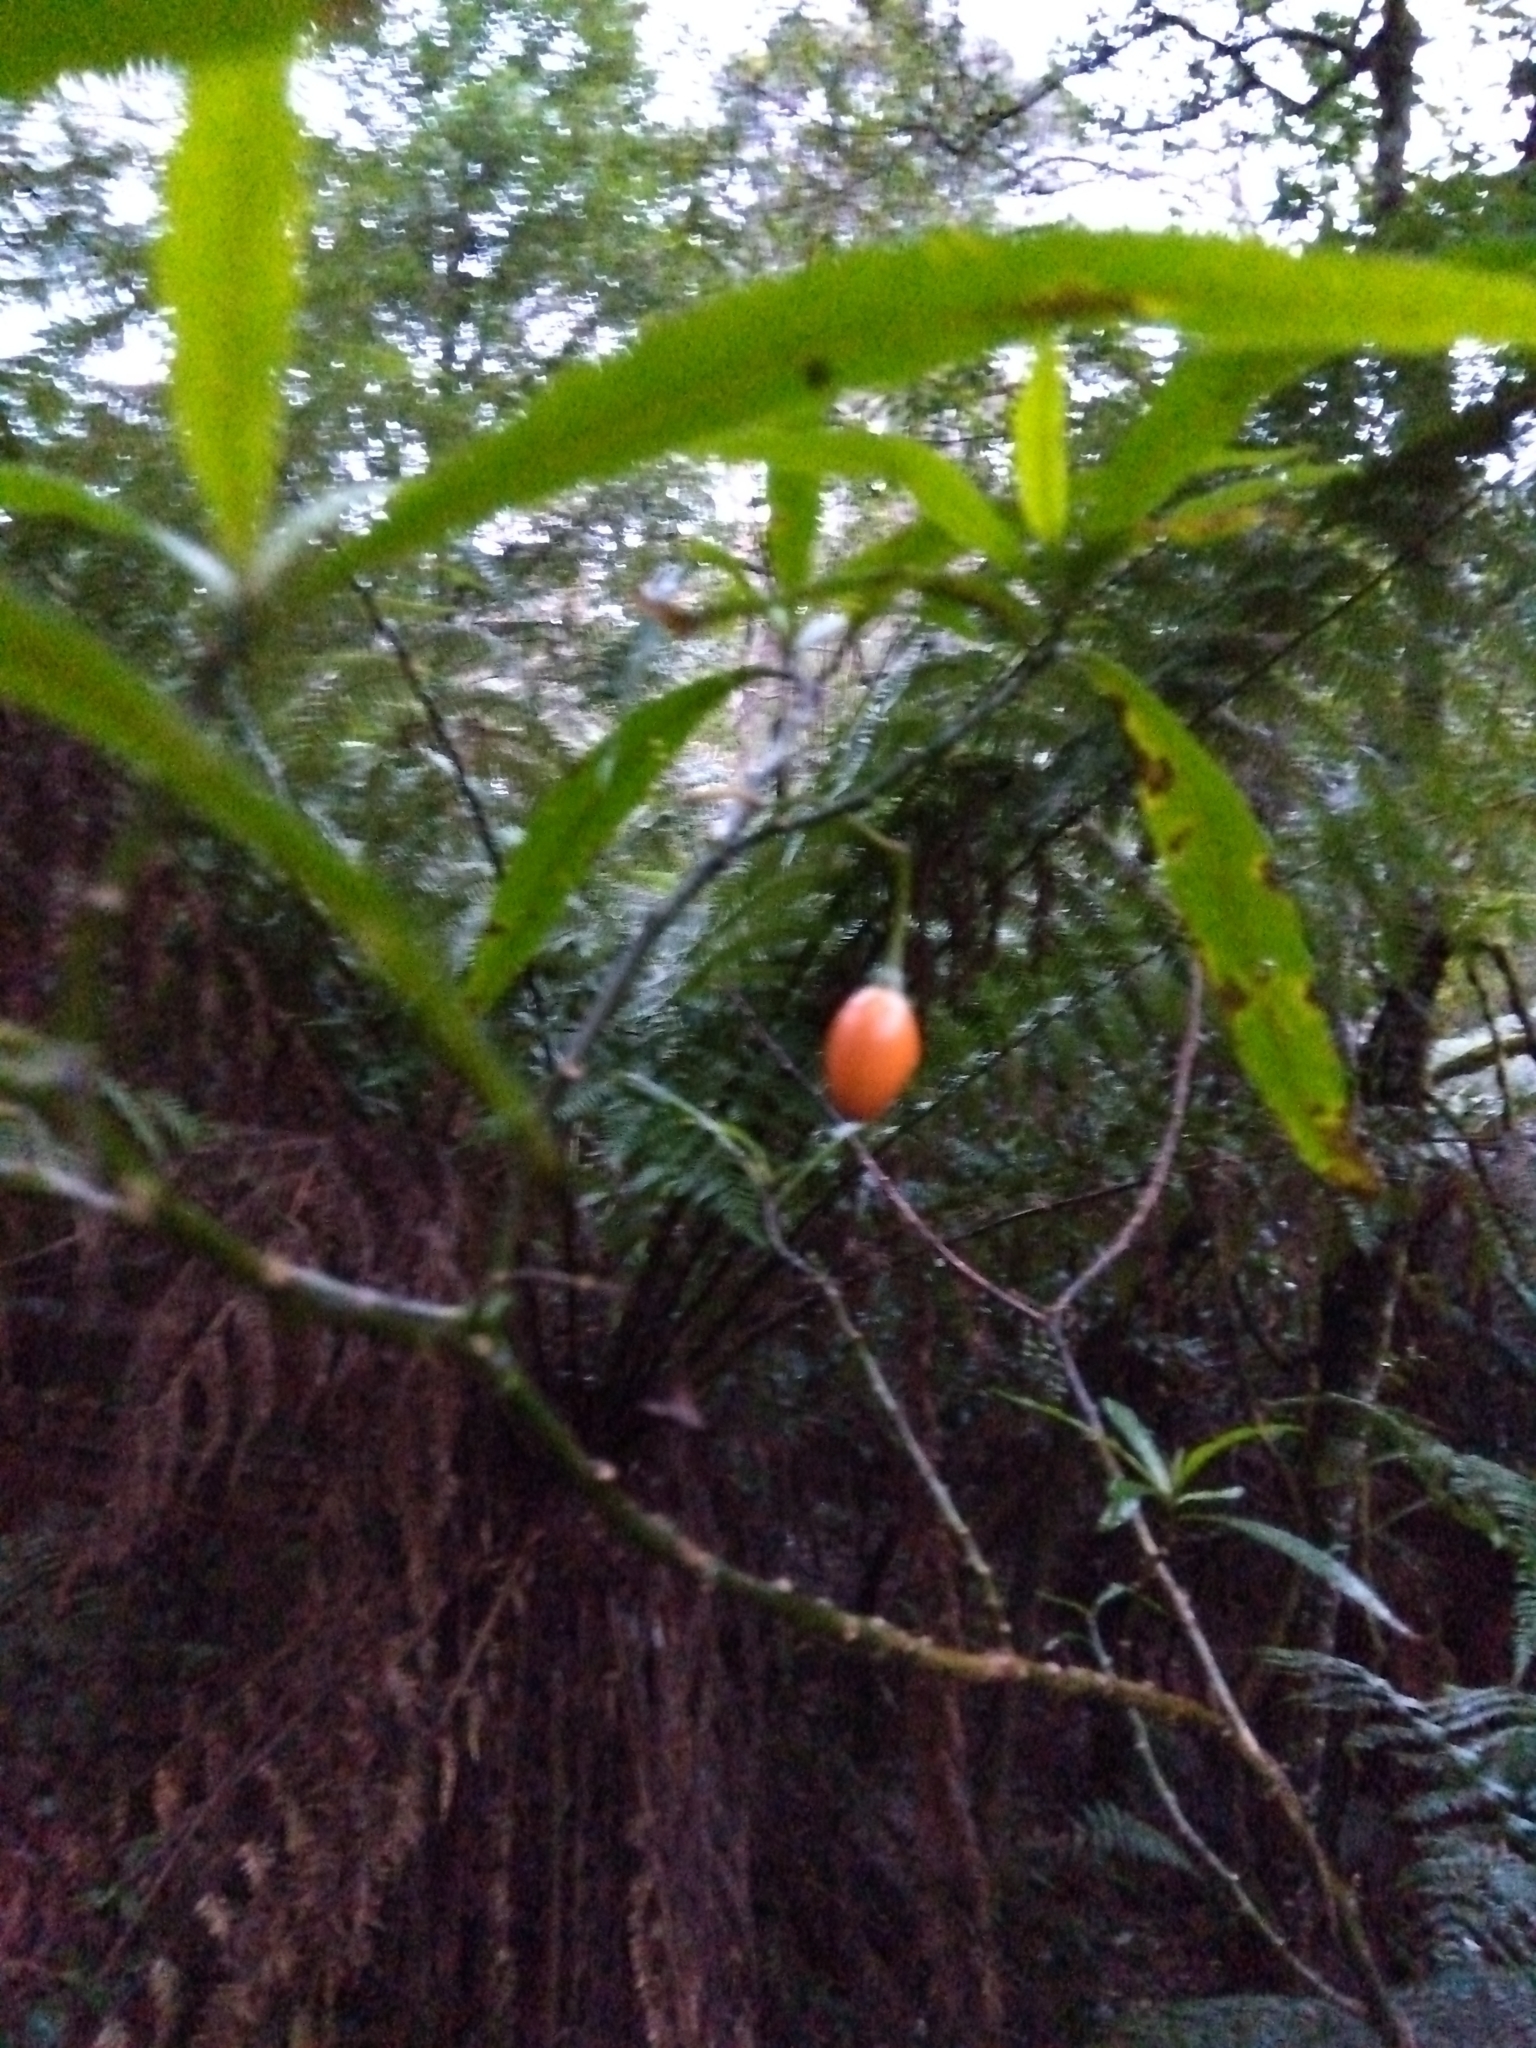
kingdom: Plantae
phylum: Tracheophyta
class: Magnoliopsida
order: Solanales
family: Solanaceae
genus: Solanum
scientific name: Solanum
